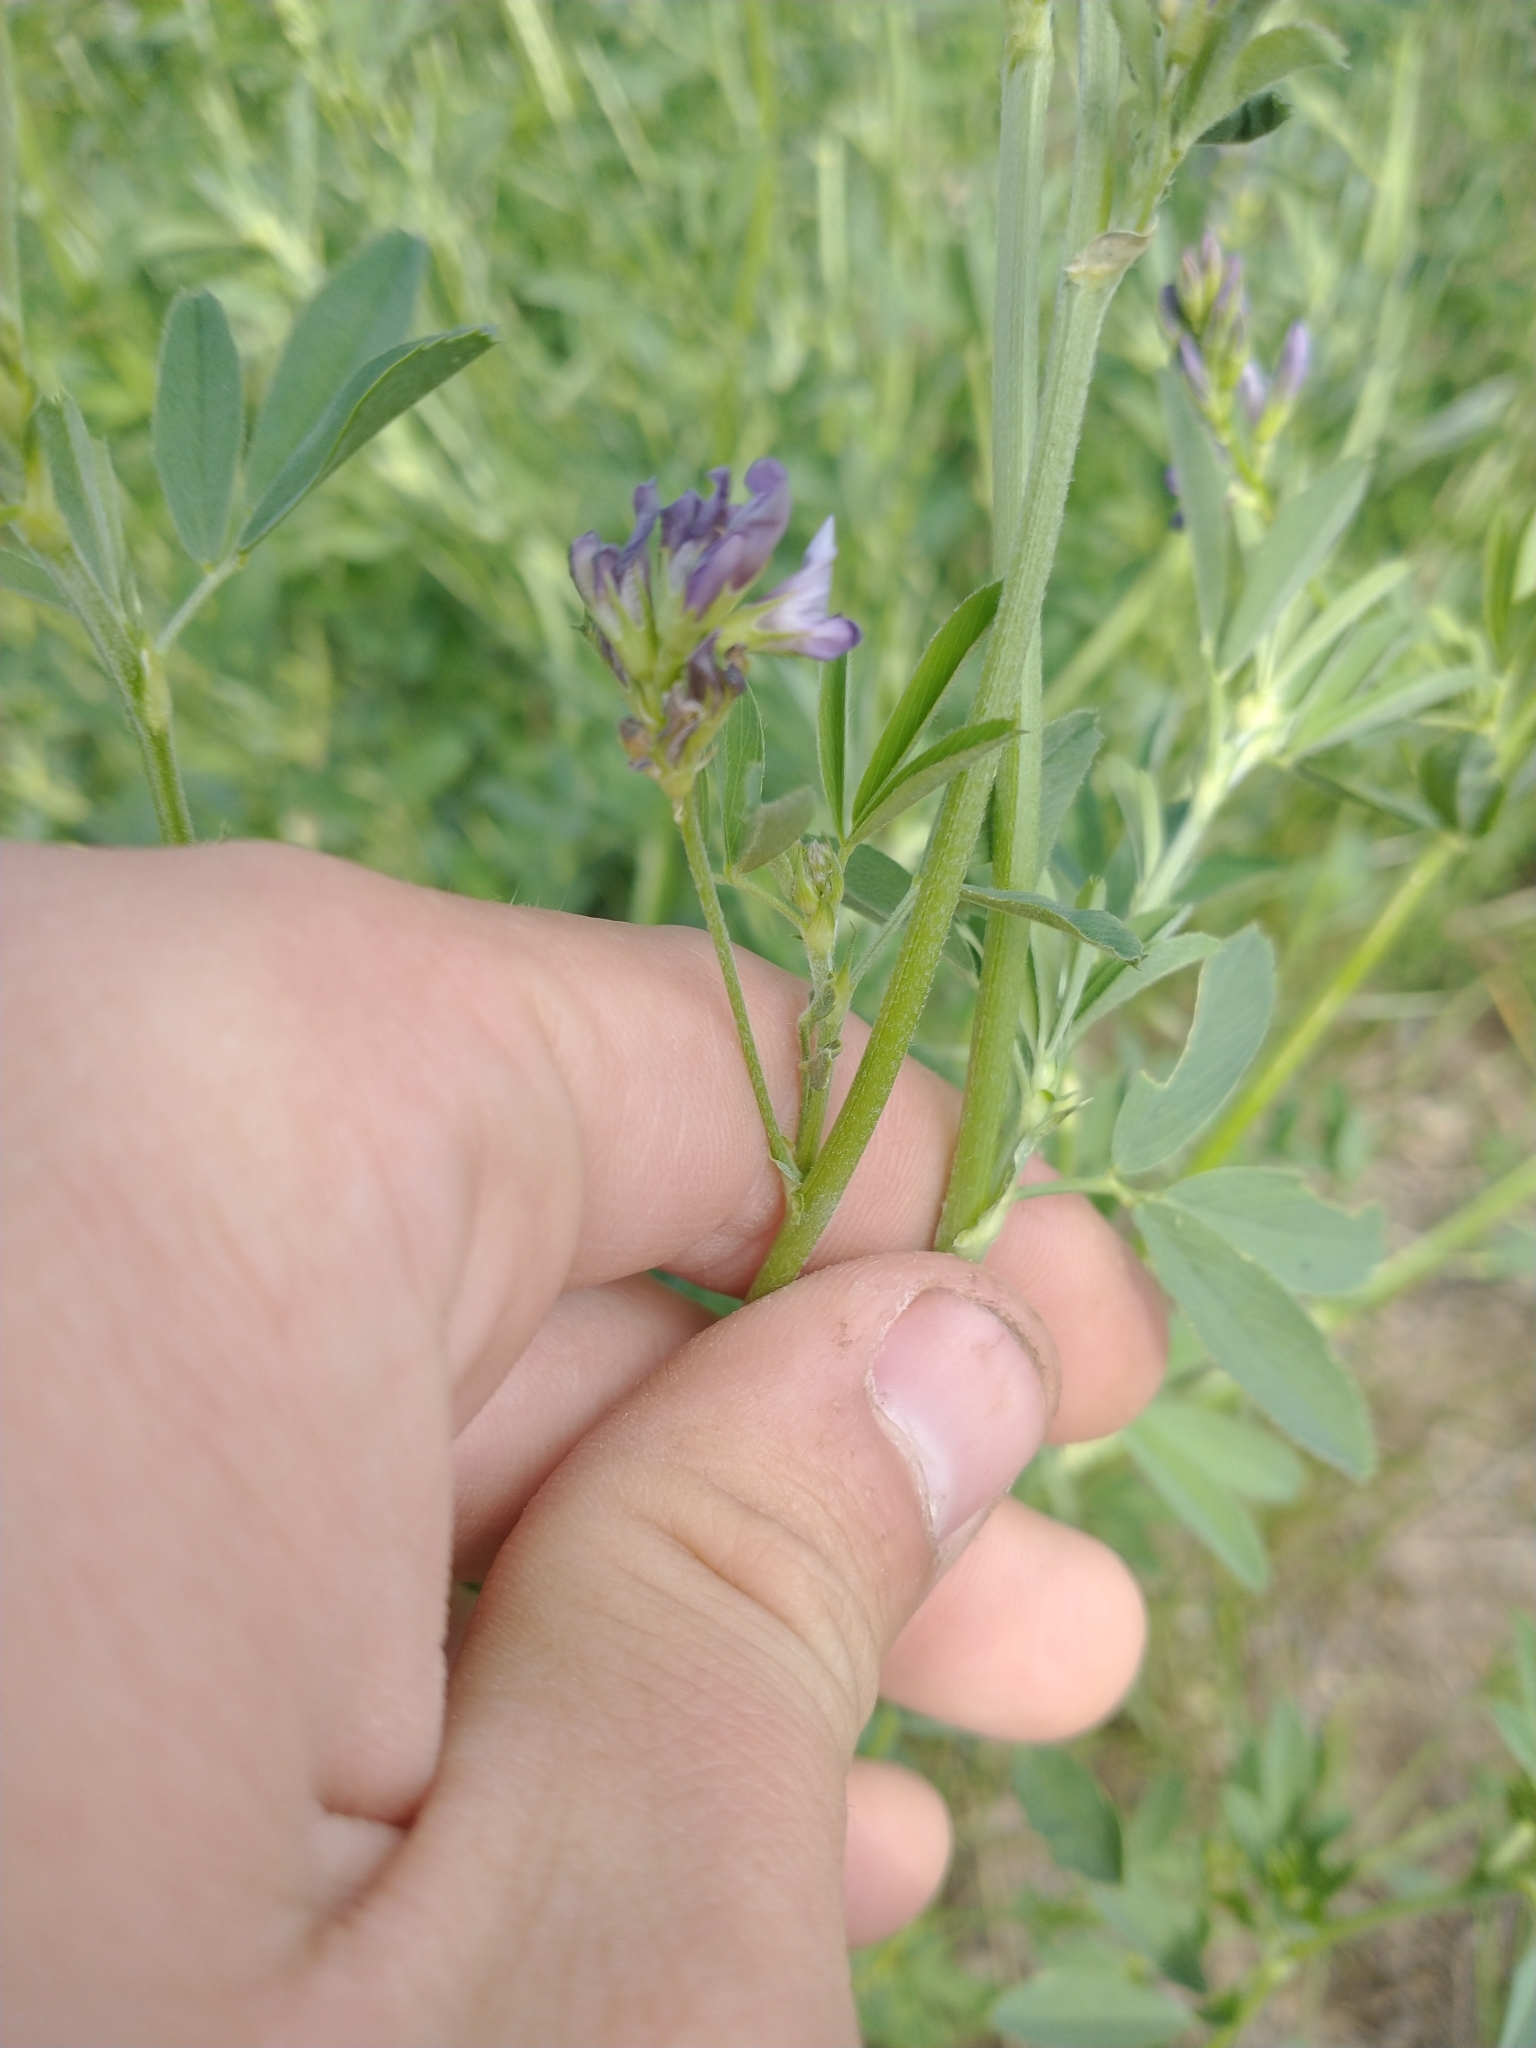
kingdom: Plantae
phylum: Tracheophyta
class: Magnoliopsida
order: Fabales
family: Fabaceae
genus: Medicago
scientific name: Medicago sativa
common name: Alfalfa
